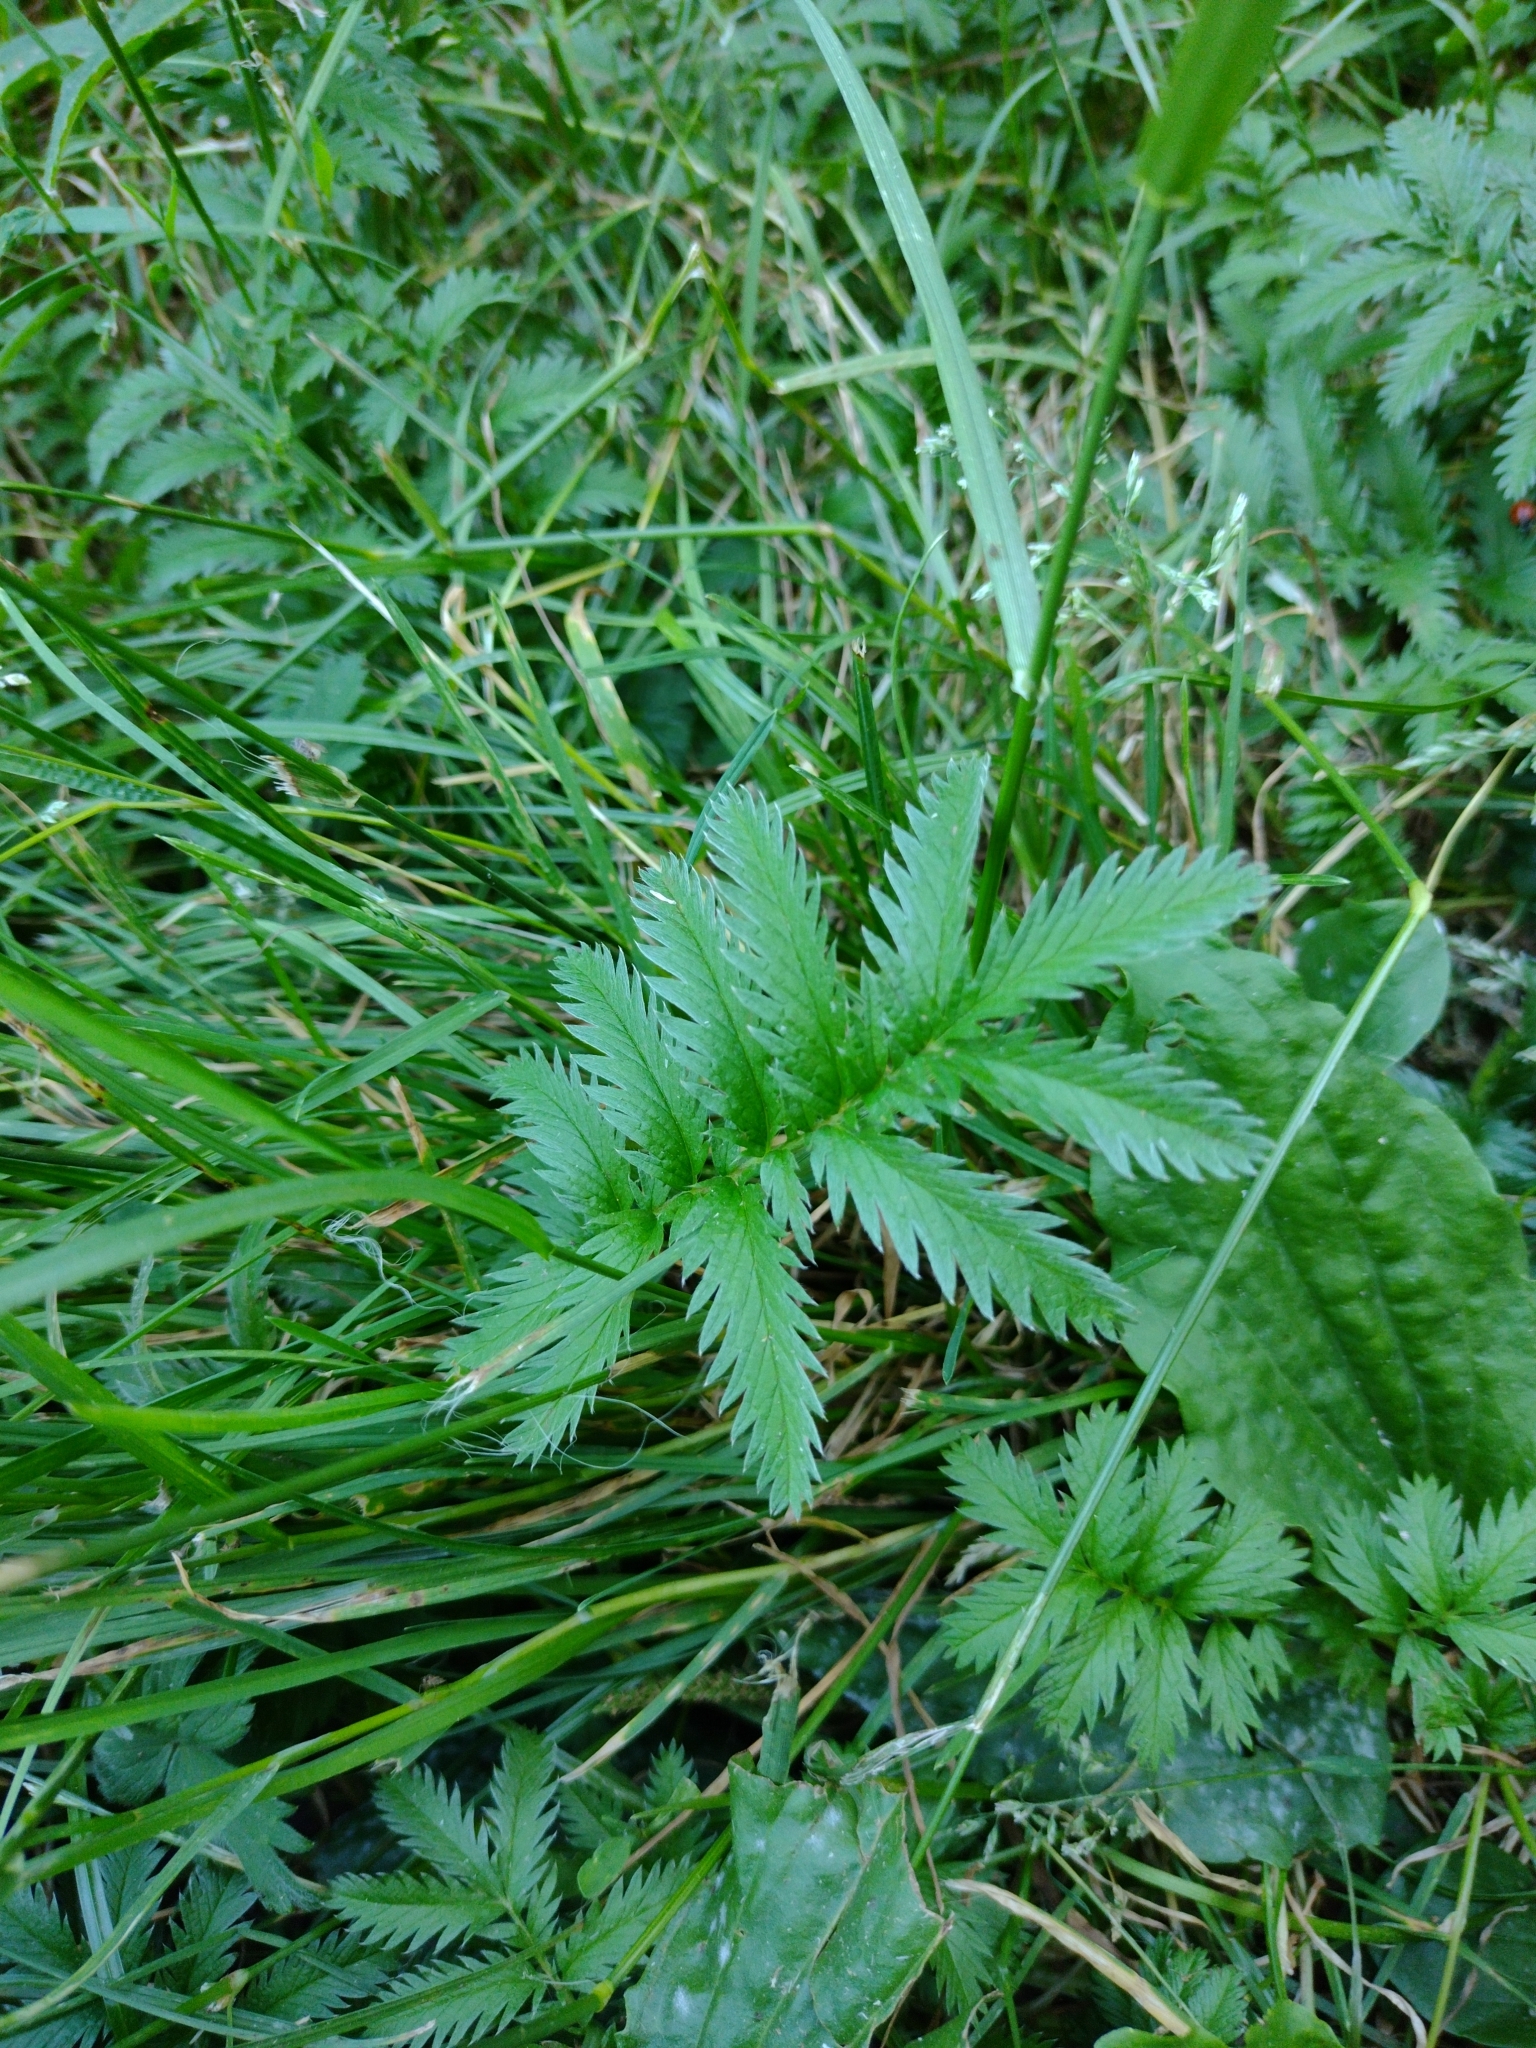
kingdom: Plantae
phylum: Tracheophyta
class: Magnoliopsida
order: Rosales
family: Rosaceae
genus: Argentina
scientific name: Argentina anserina
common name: Common silverweed
